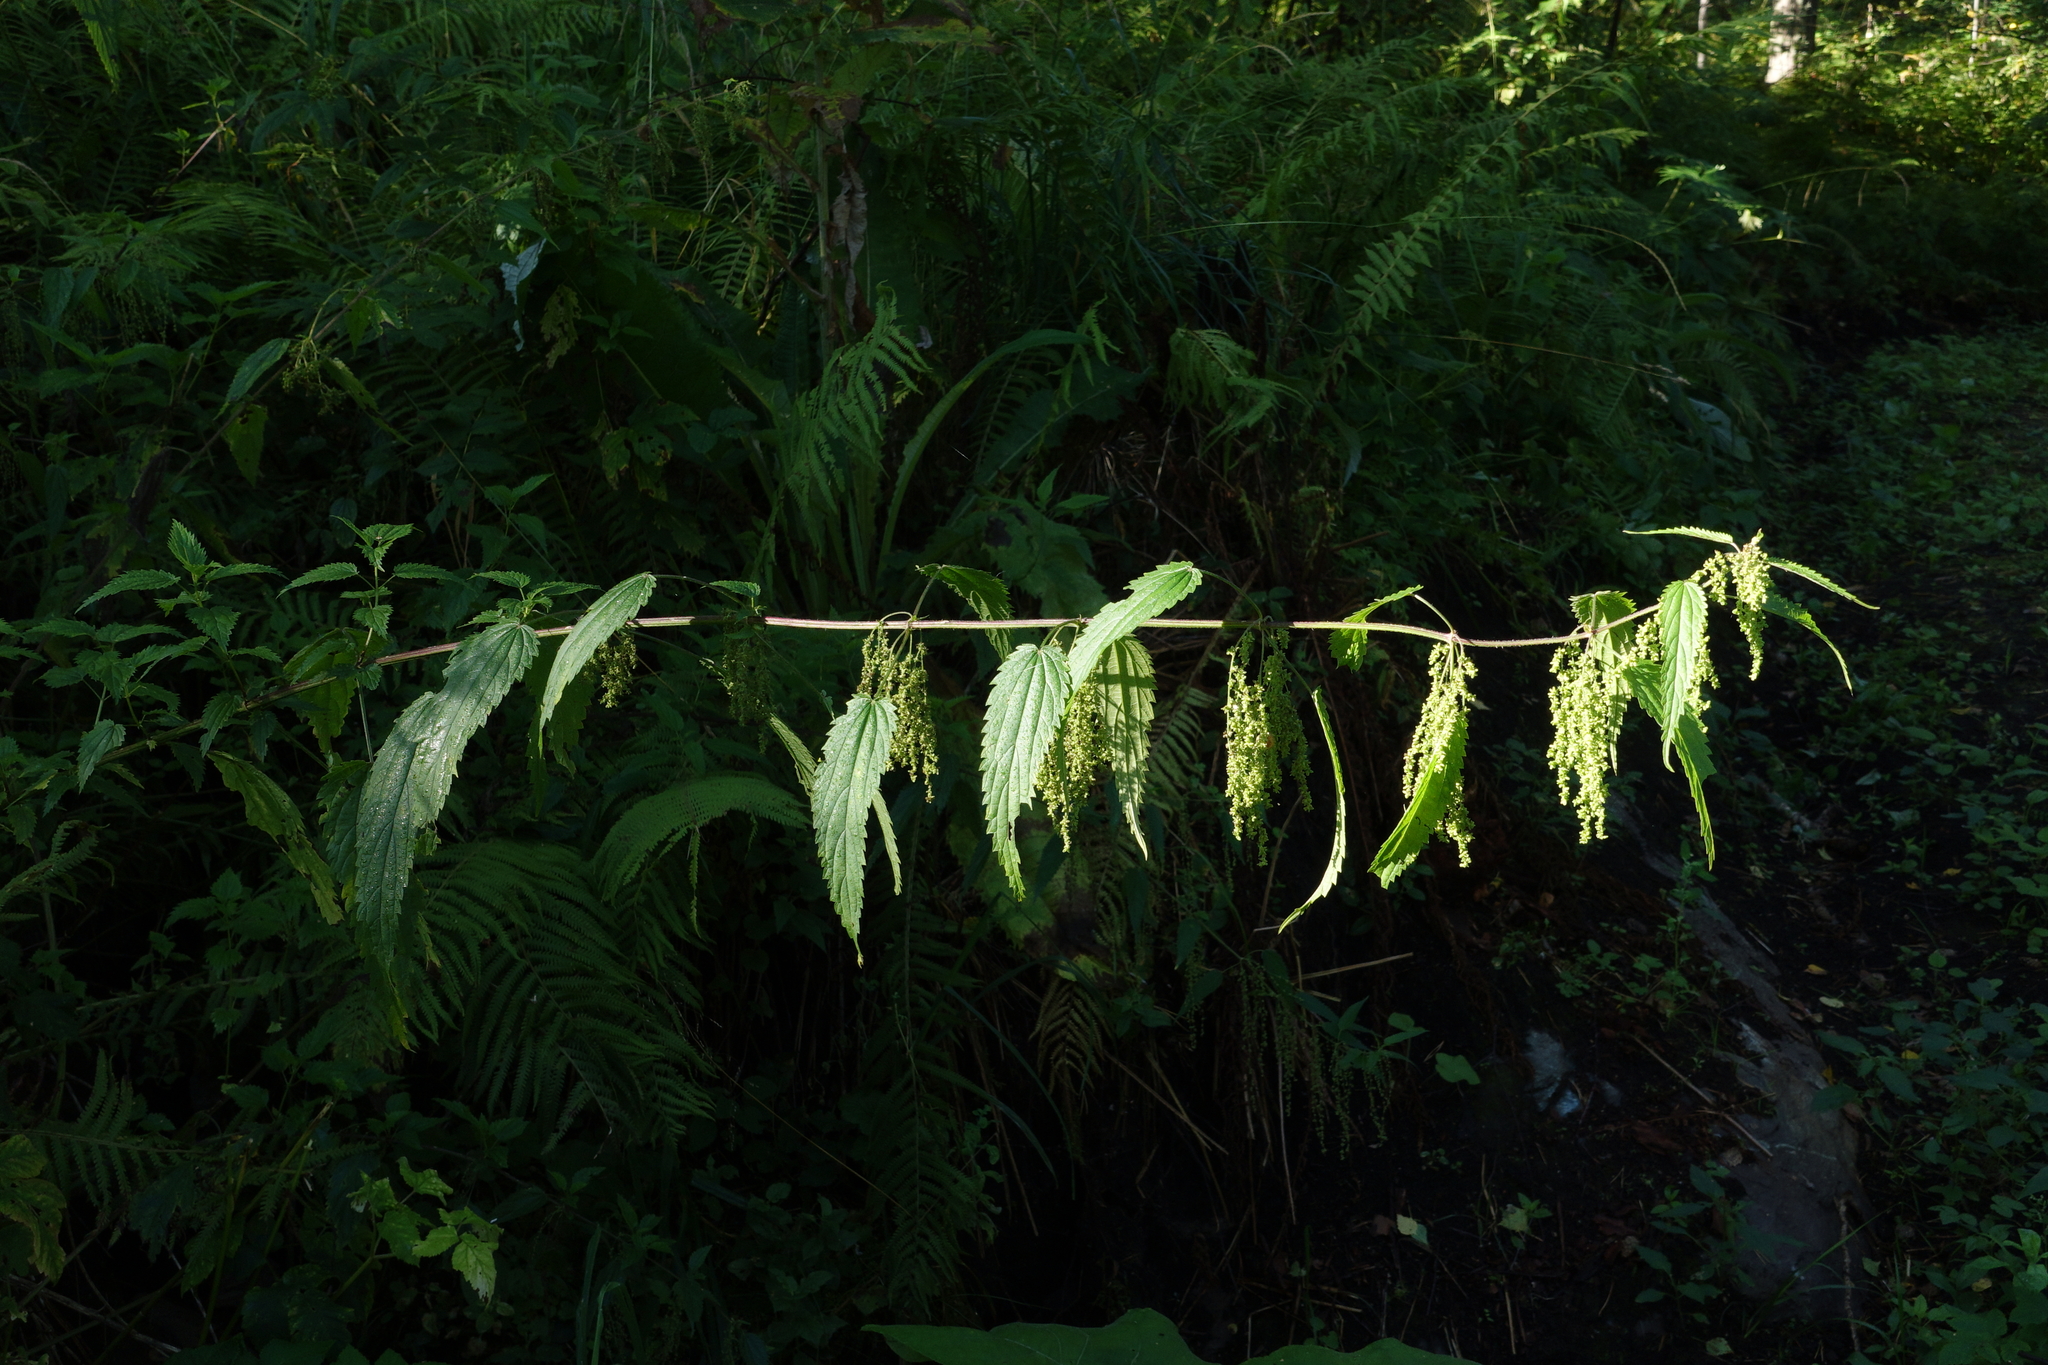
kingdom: Plantae
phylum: Tracheophyta
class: Magnoliopsida
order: Rosales
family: Urticaceae
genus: Urtica
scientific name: Urtica dioica
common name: Common nettle
